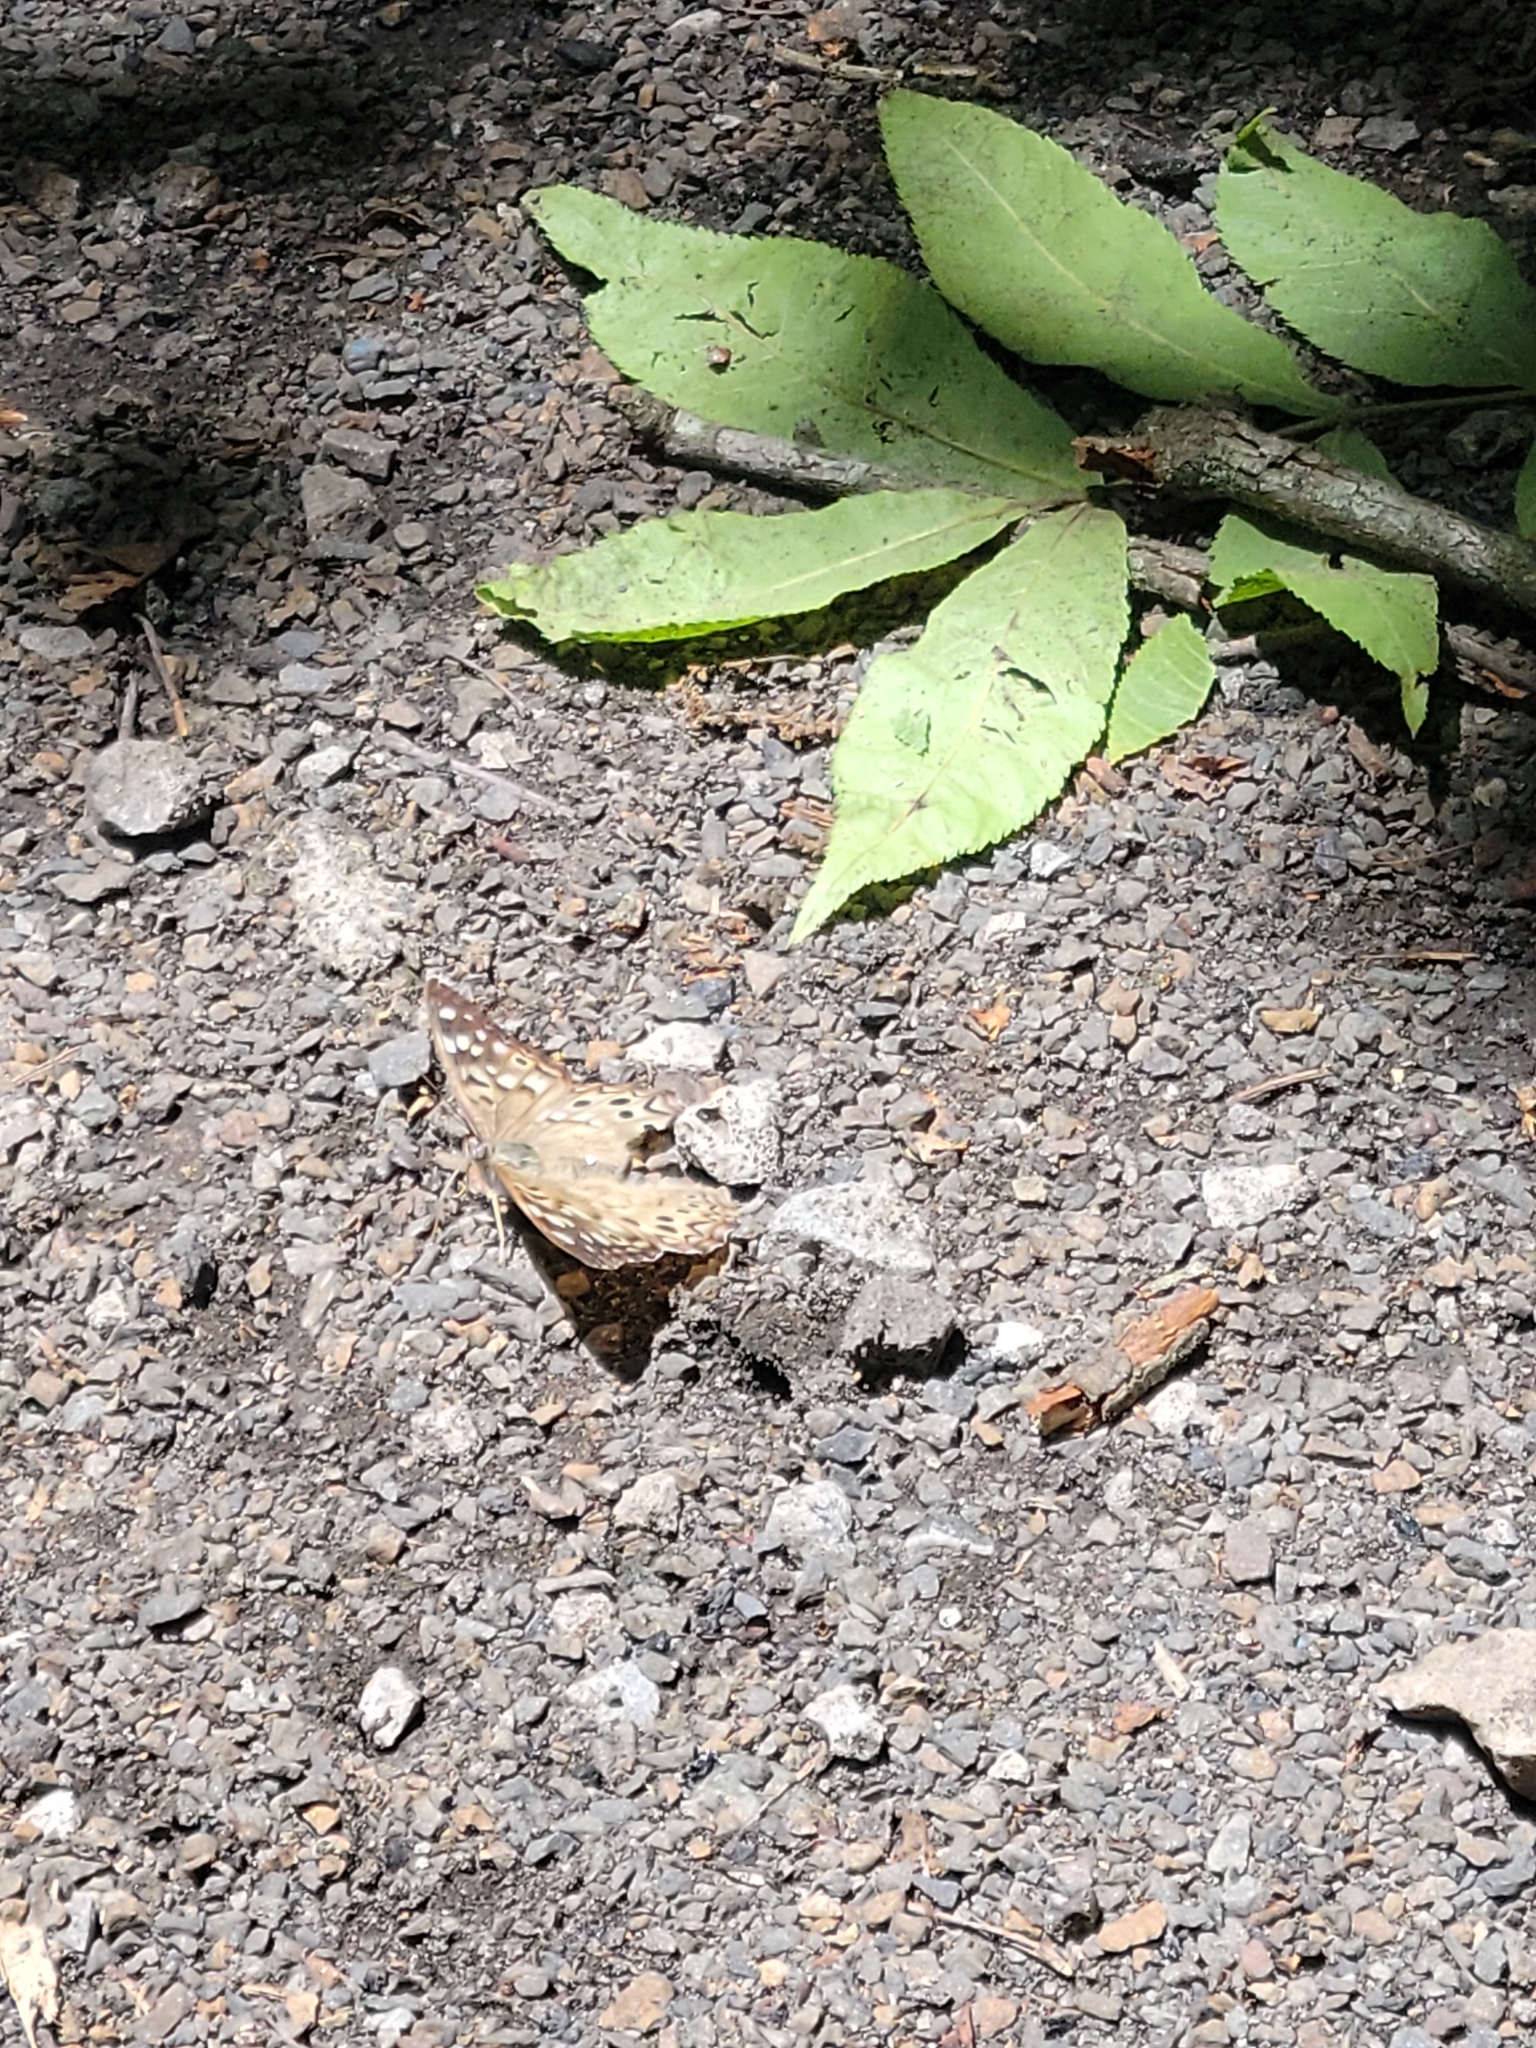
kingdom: Animalia
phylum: Arthropoda
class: Insecta
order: Lepidoptera
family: Nymphalidae
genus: Asterocampa
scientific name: Asterocampa celtis
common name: Hackberry emperor
